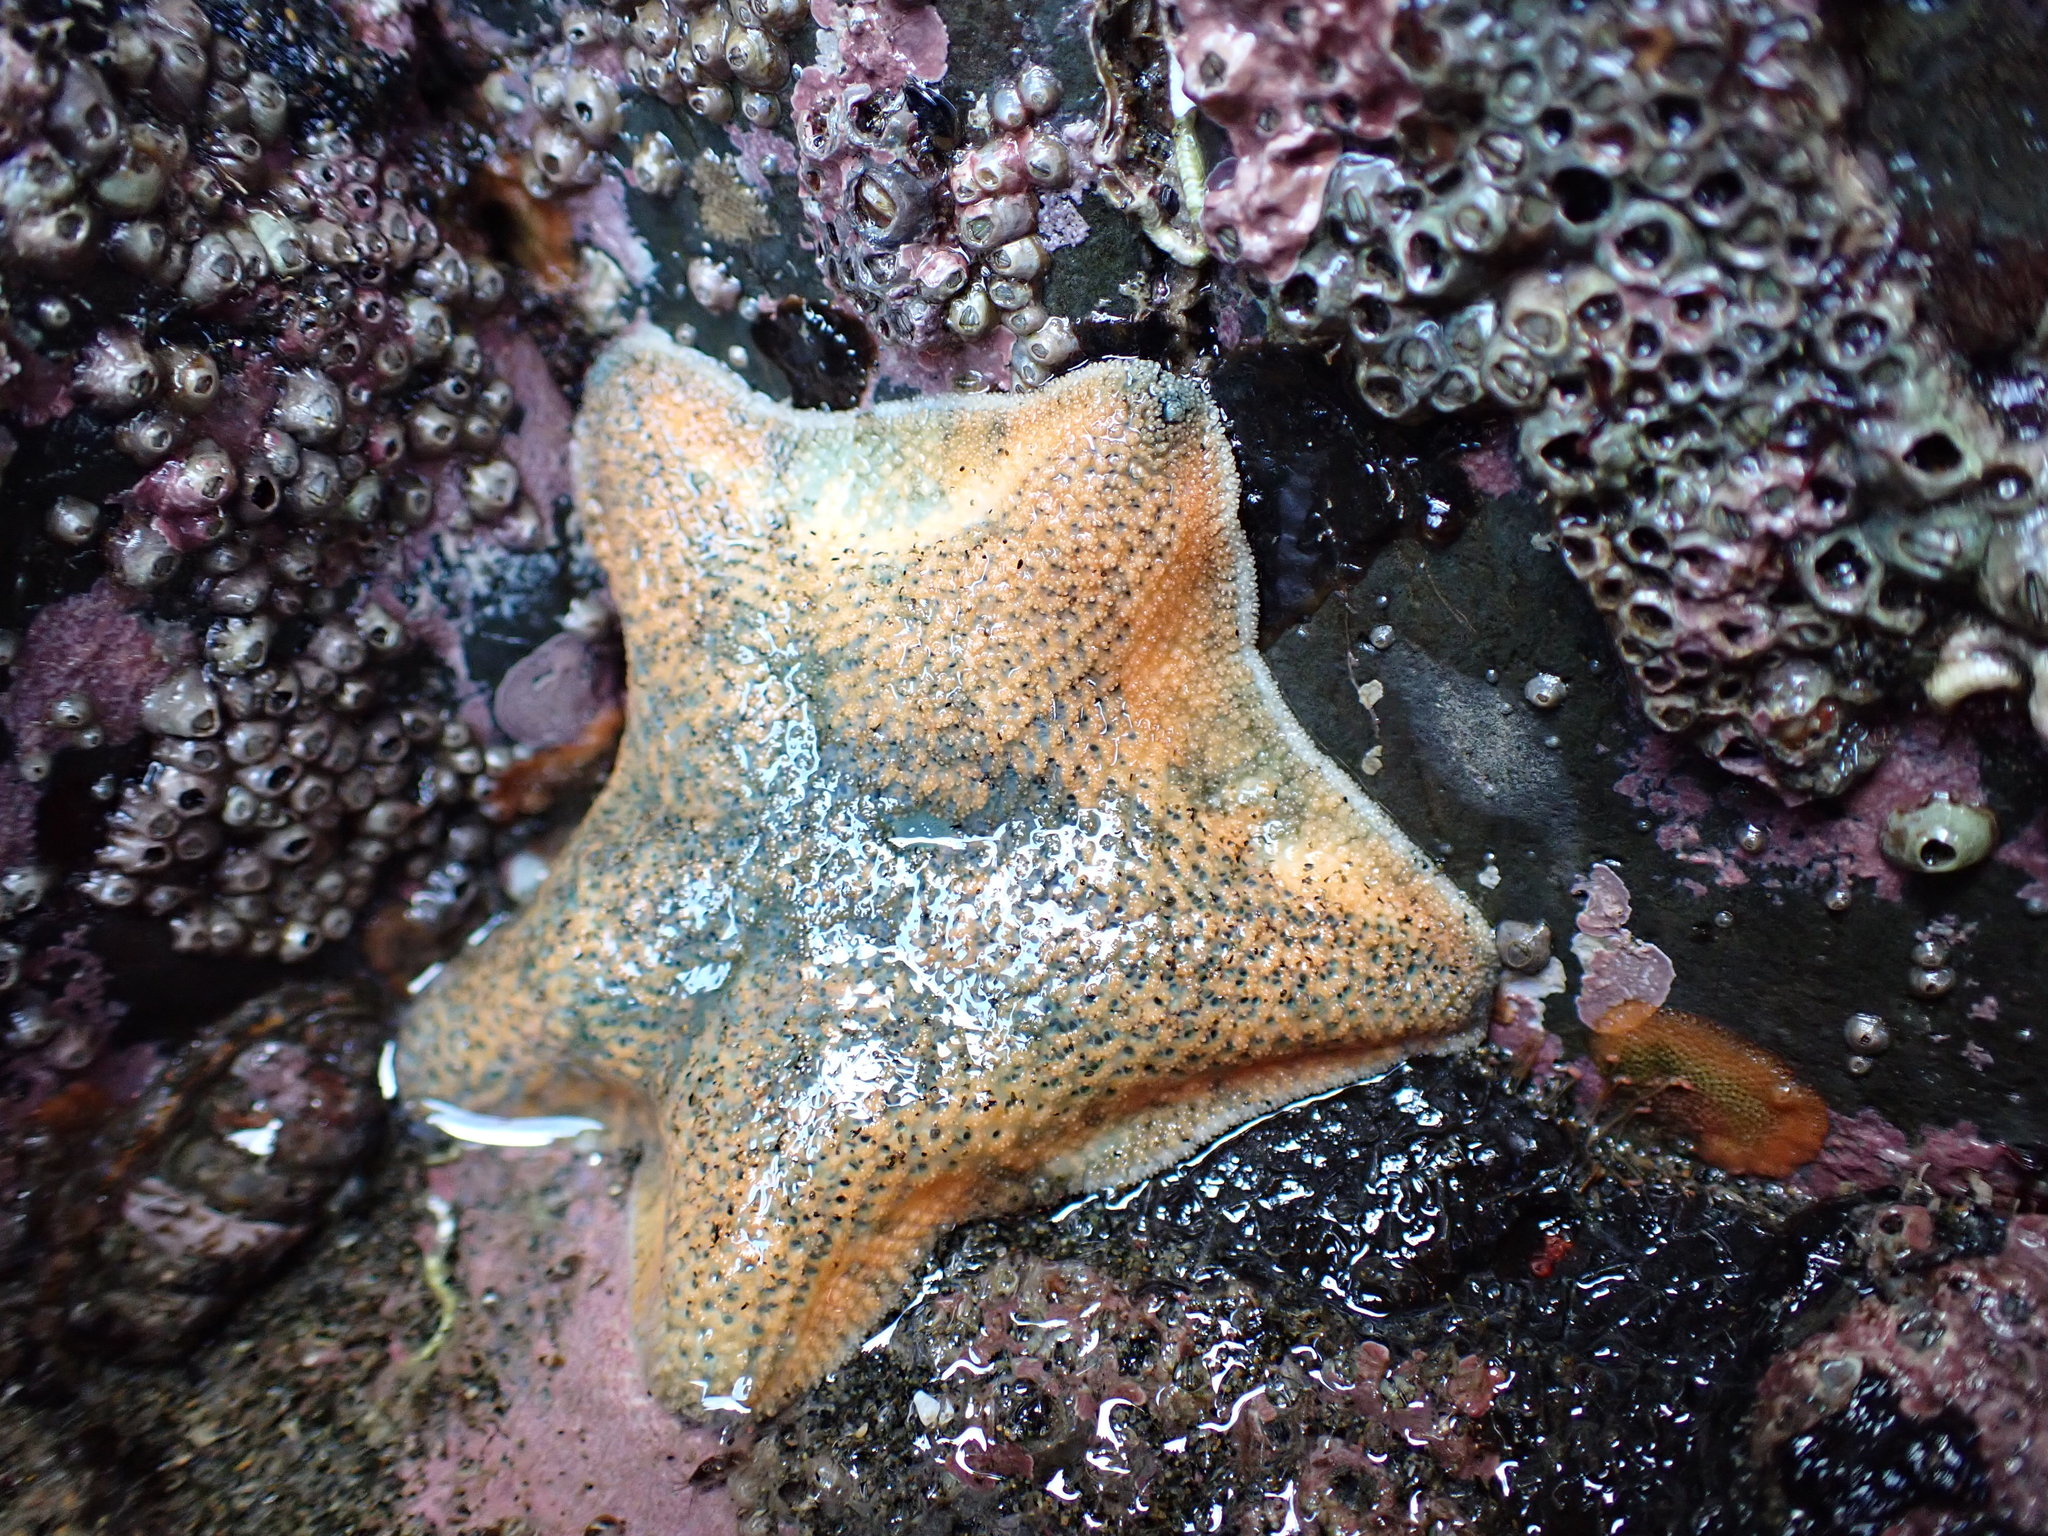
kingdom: Animalia
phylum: Echinodermata
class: Asteroidea
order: Valvatida
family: Asterinidae
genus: Patiriella
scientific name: Patiriella regularis
